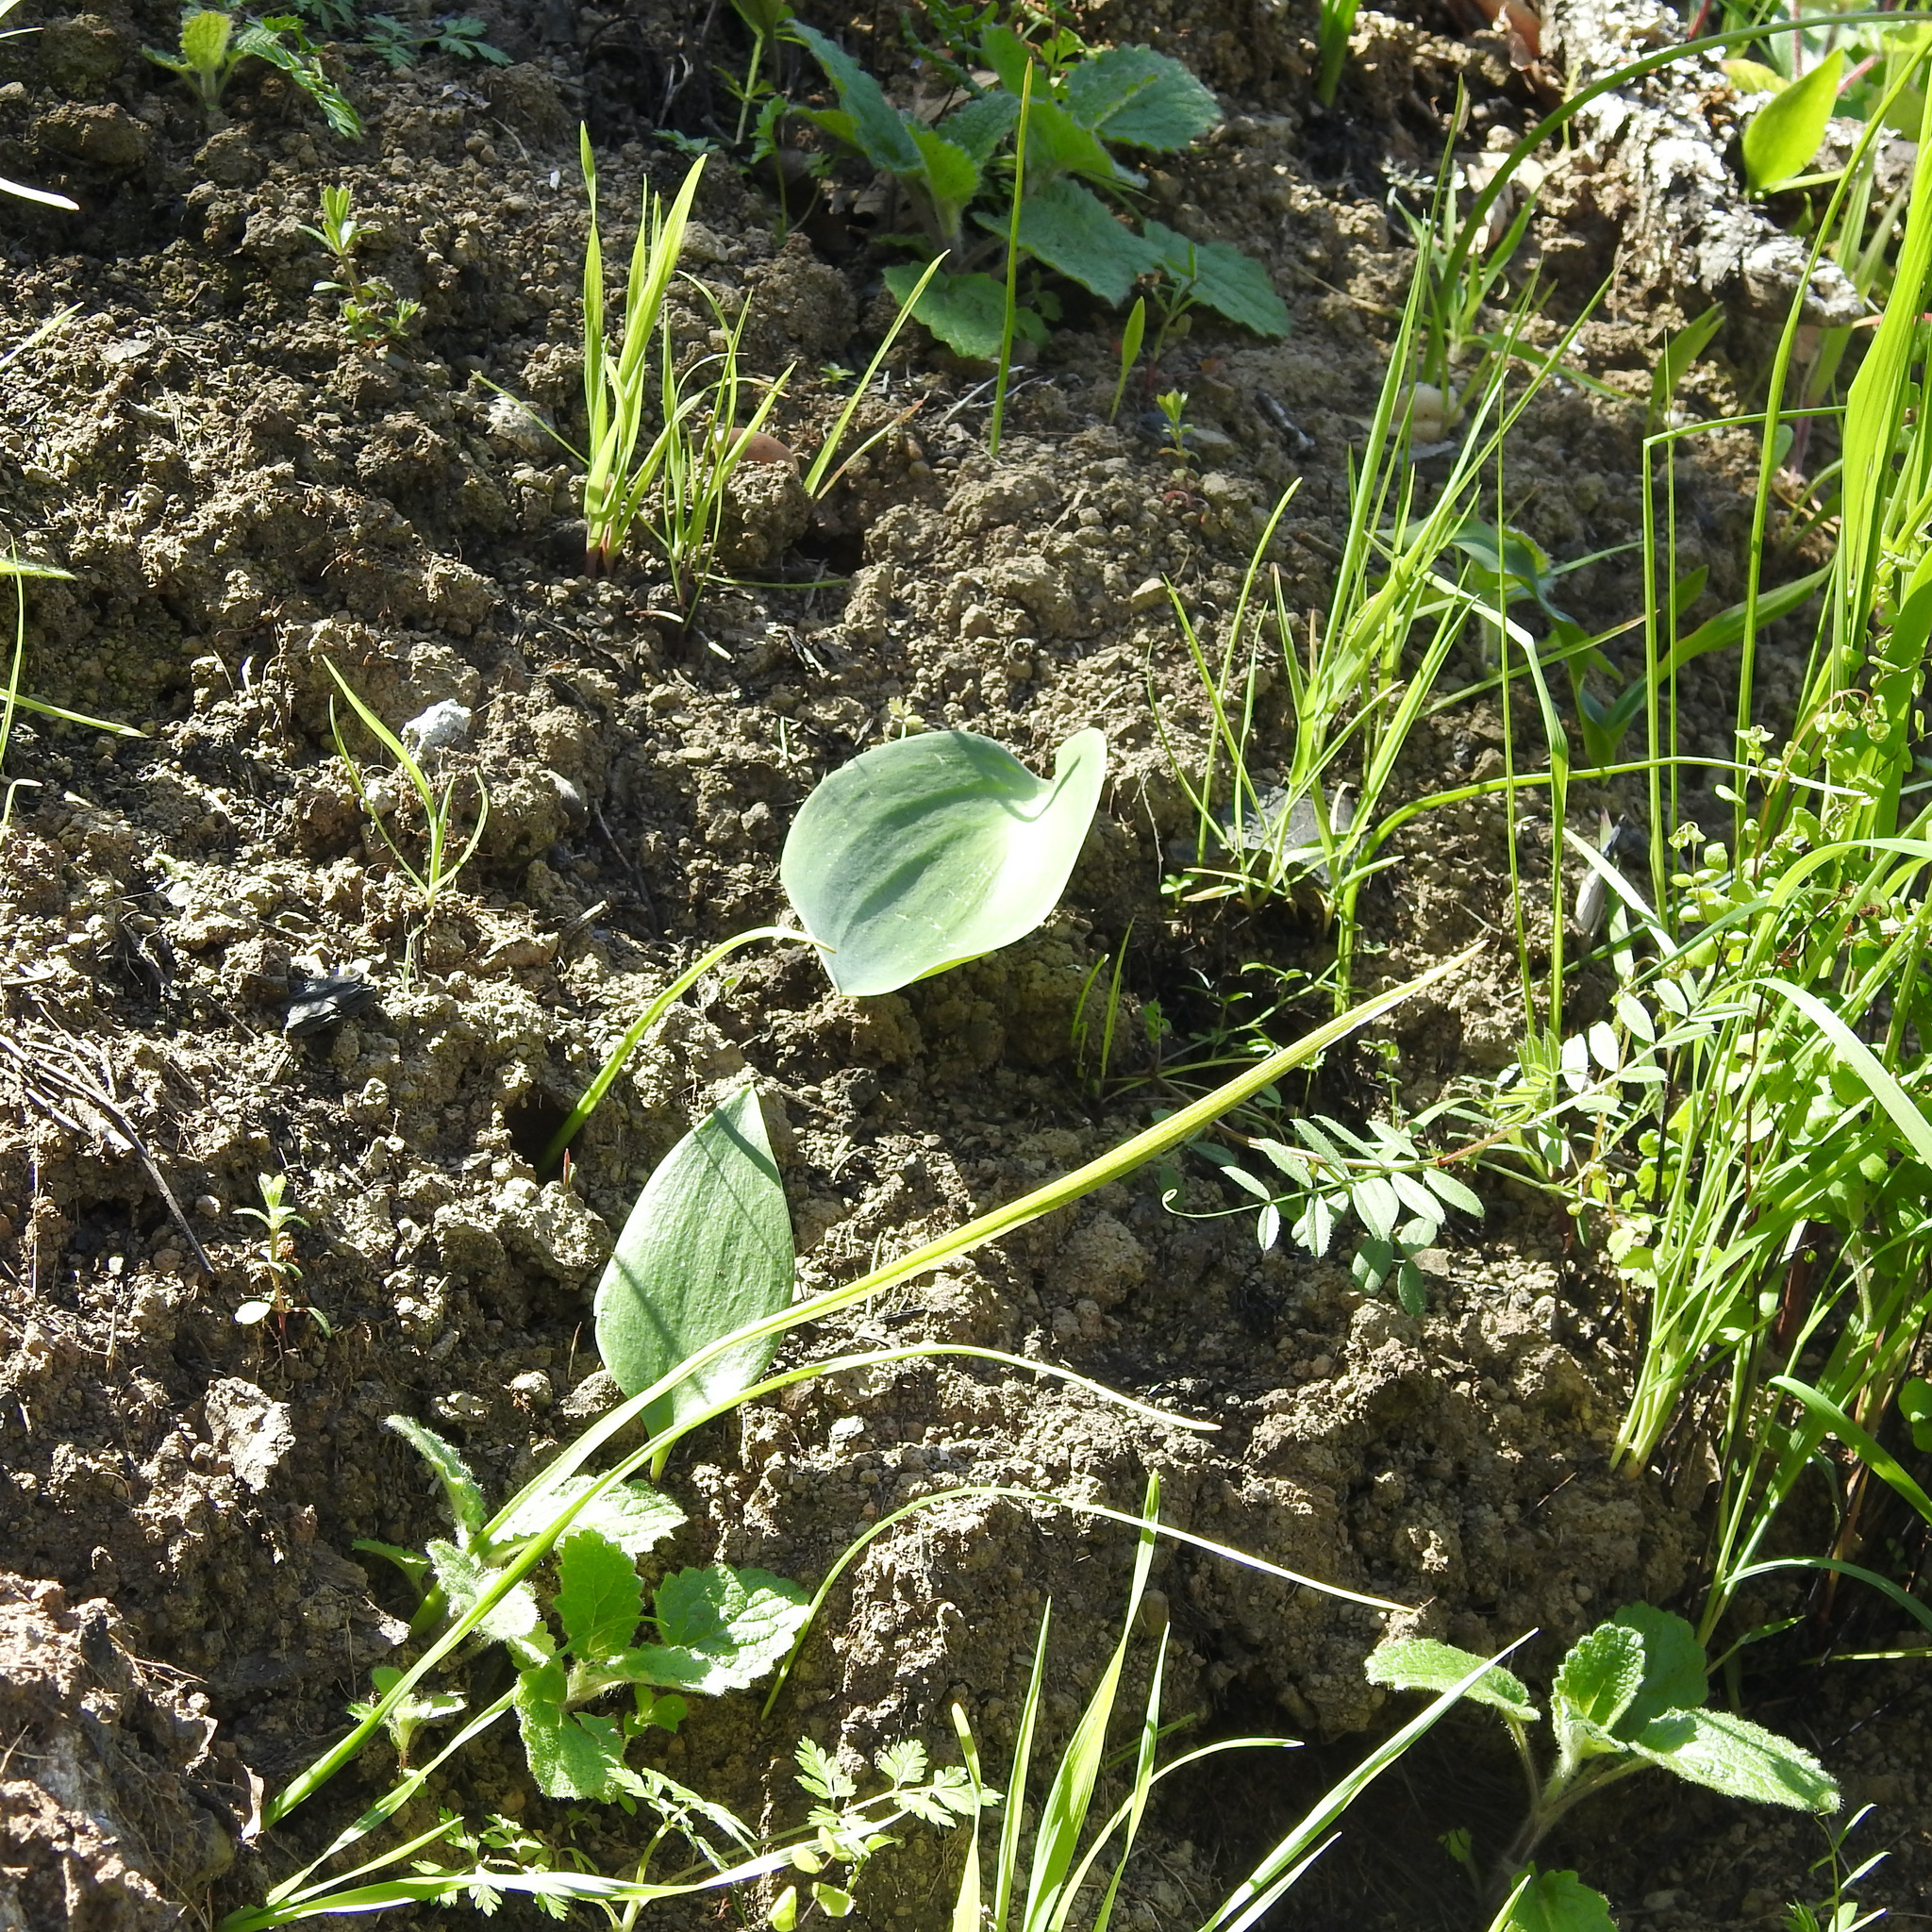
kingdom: Plantae
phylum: Tracheophyta
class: Liliopsida
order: Liliales
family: Liliaceae
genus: Fritillaria
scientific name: Fritillaria affinis
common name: Ojai fritillary
